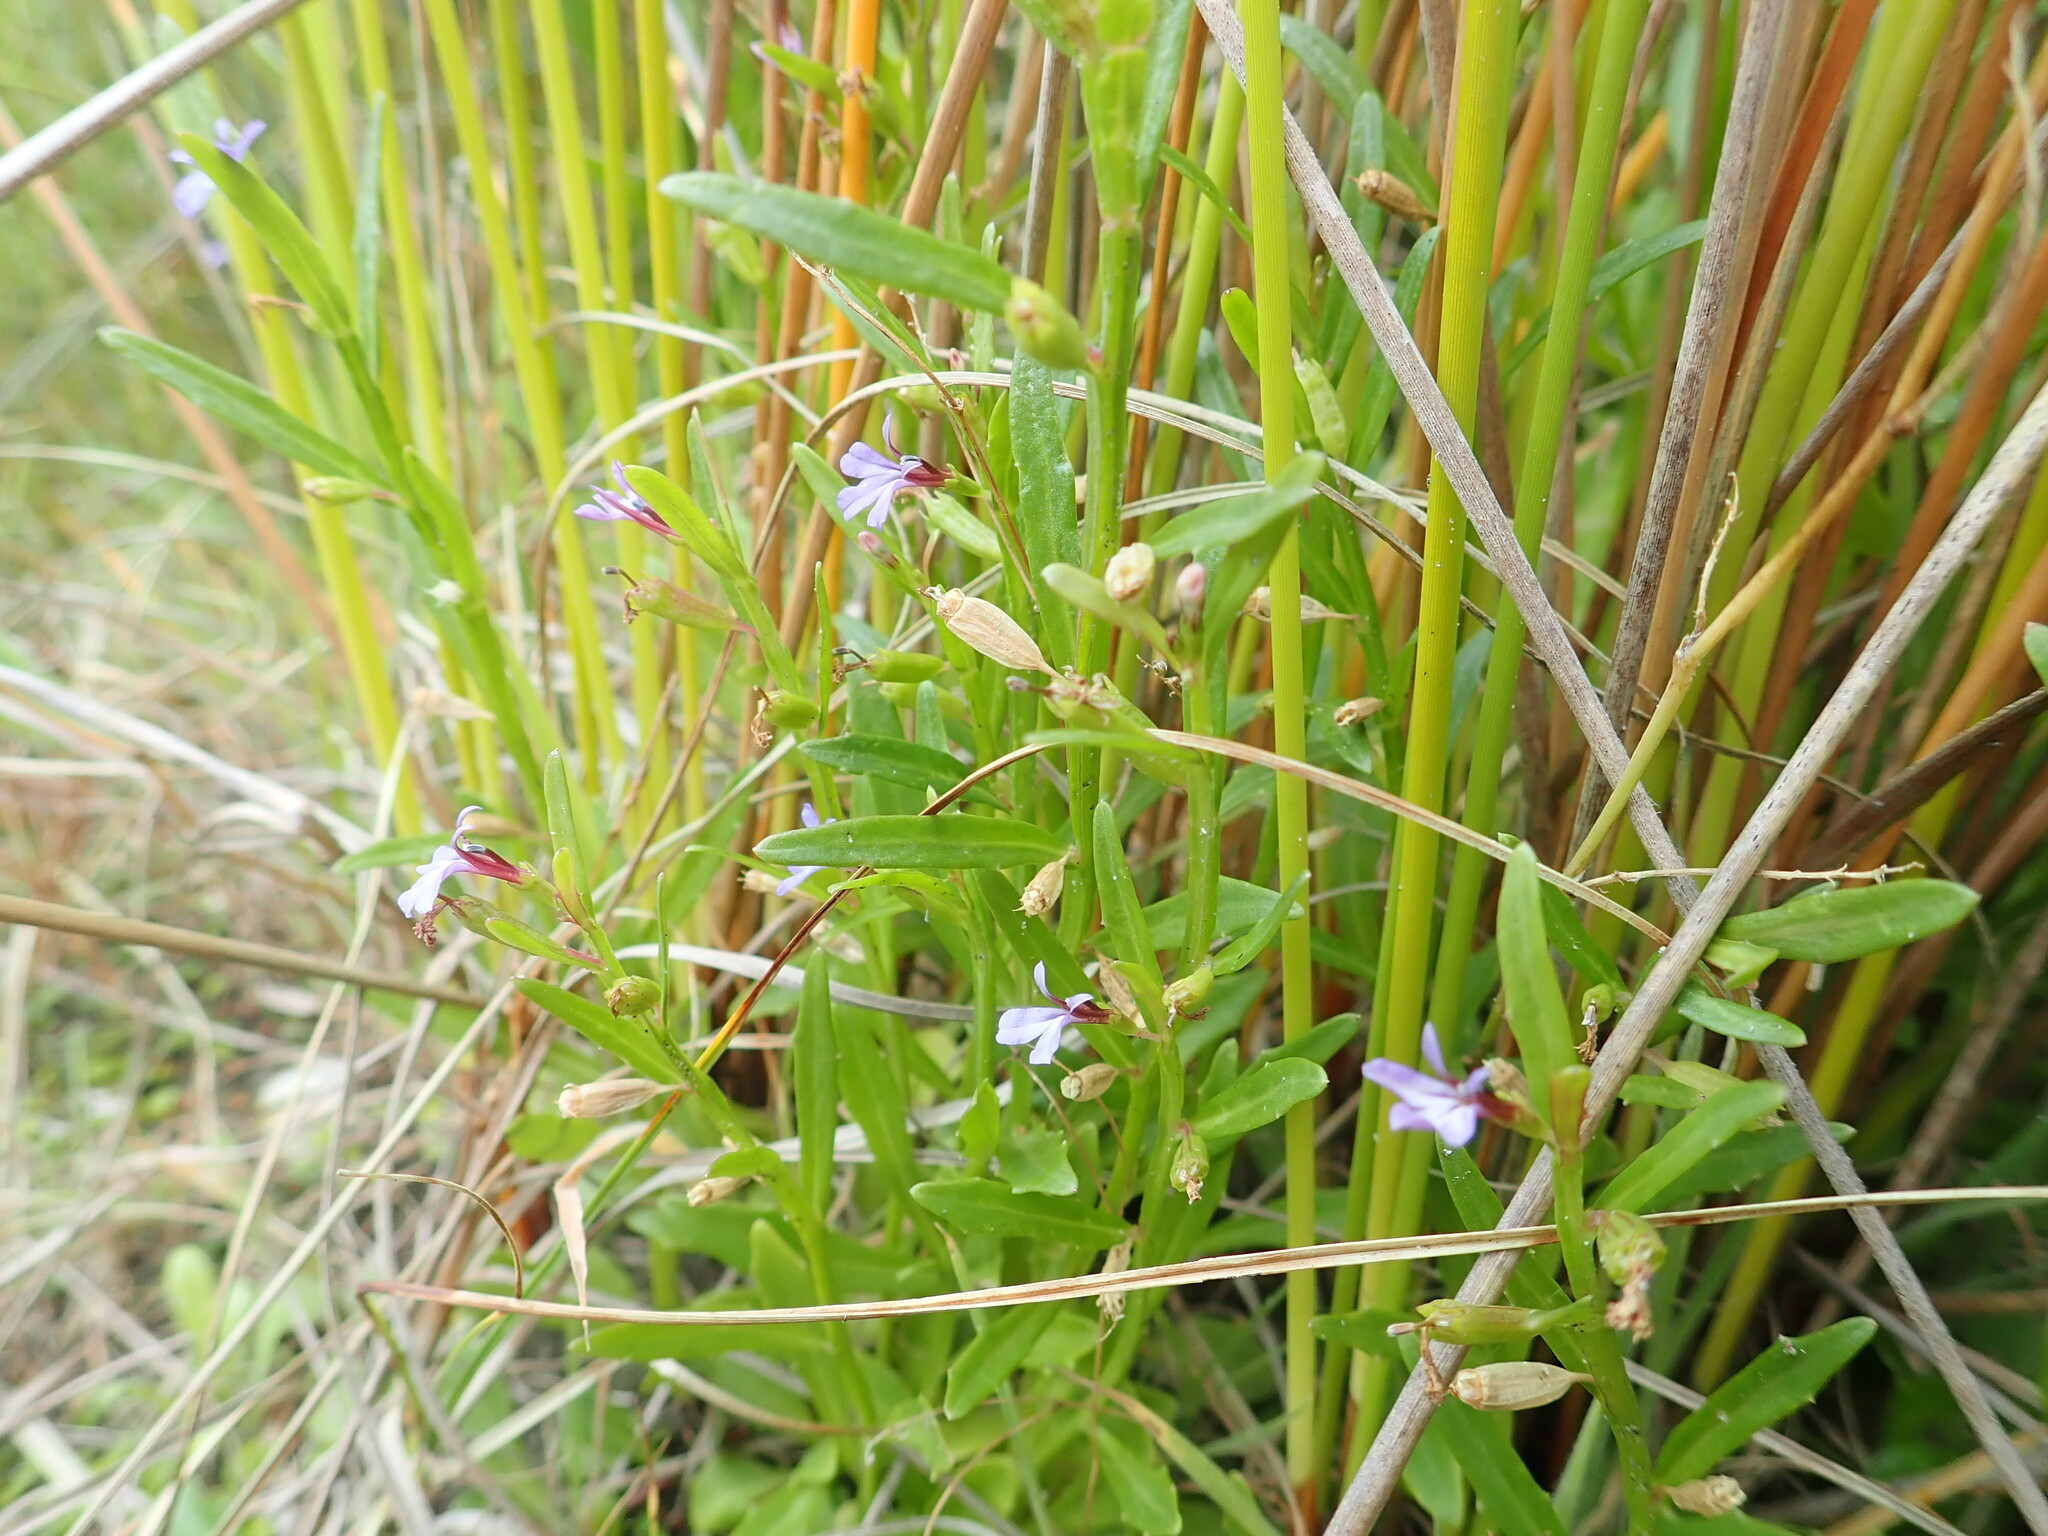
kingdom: Plantae
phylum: Tracheophyta
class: Magnoliopsida
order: Asterales
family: Campanulaceae
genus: Lobelia
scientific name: Lobelia anceps
